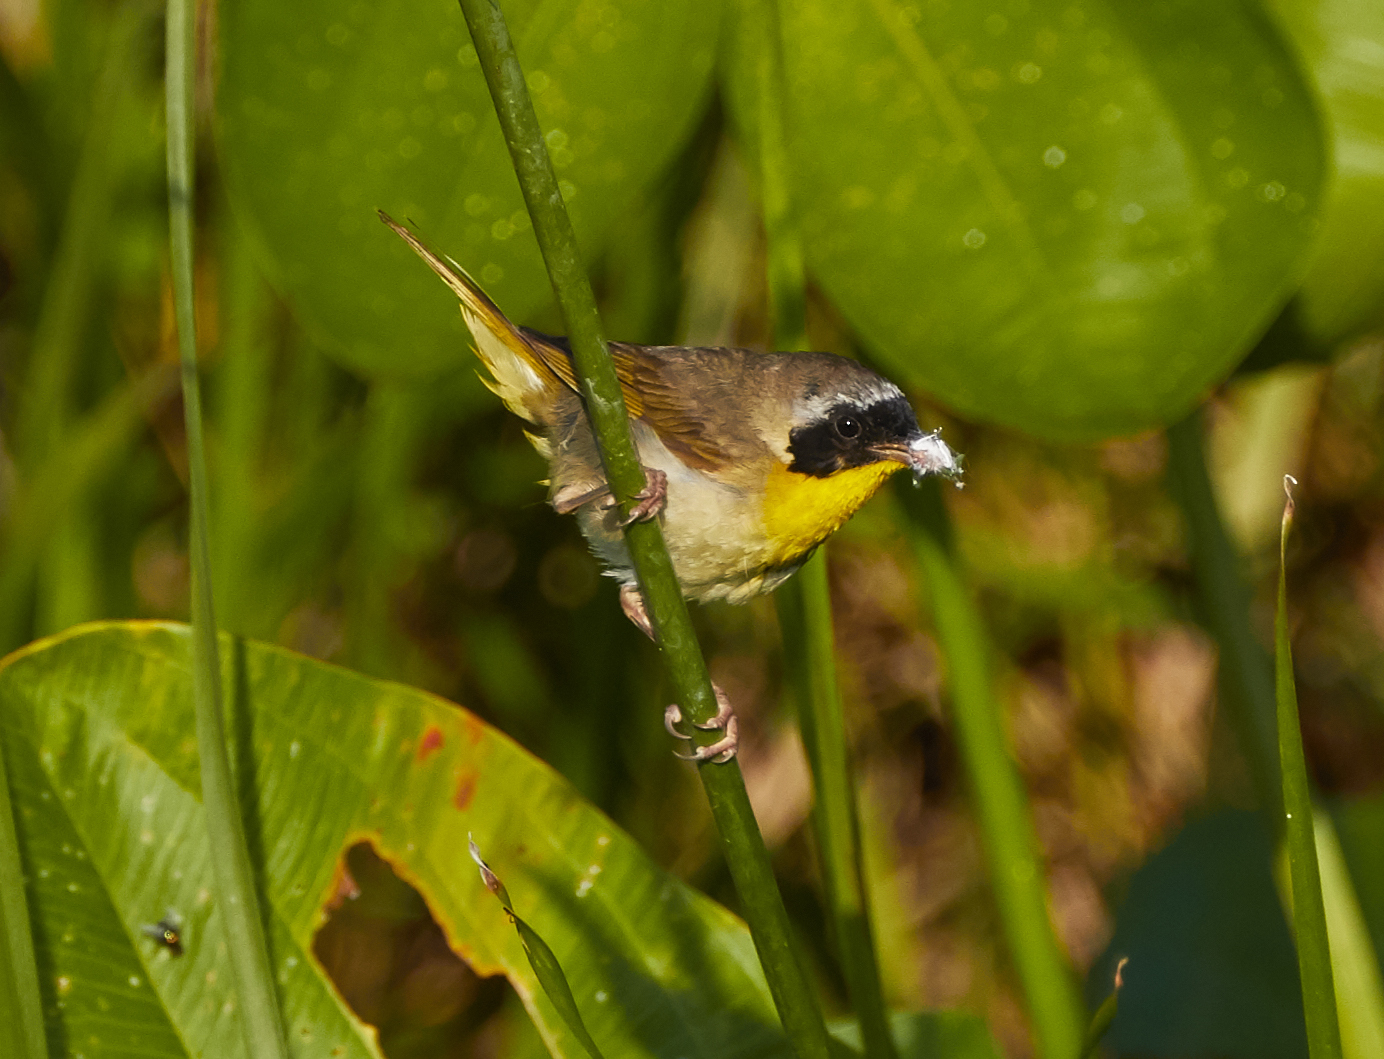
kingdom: Animalia
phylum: Chordata
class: Aves
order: Passeriformes
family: Parulidae
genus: Geothlypis
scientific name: Geothlypis trichas
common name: Common yellowthroat
